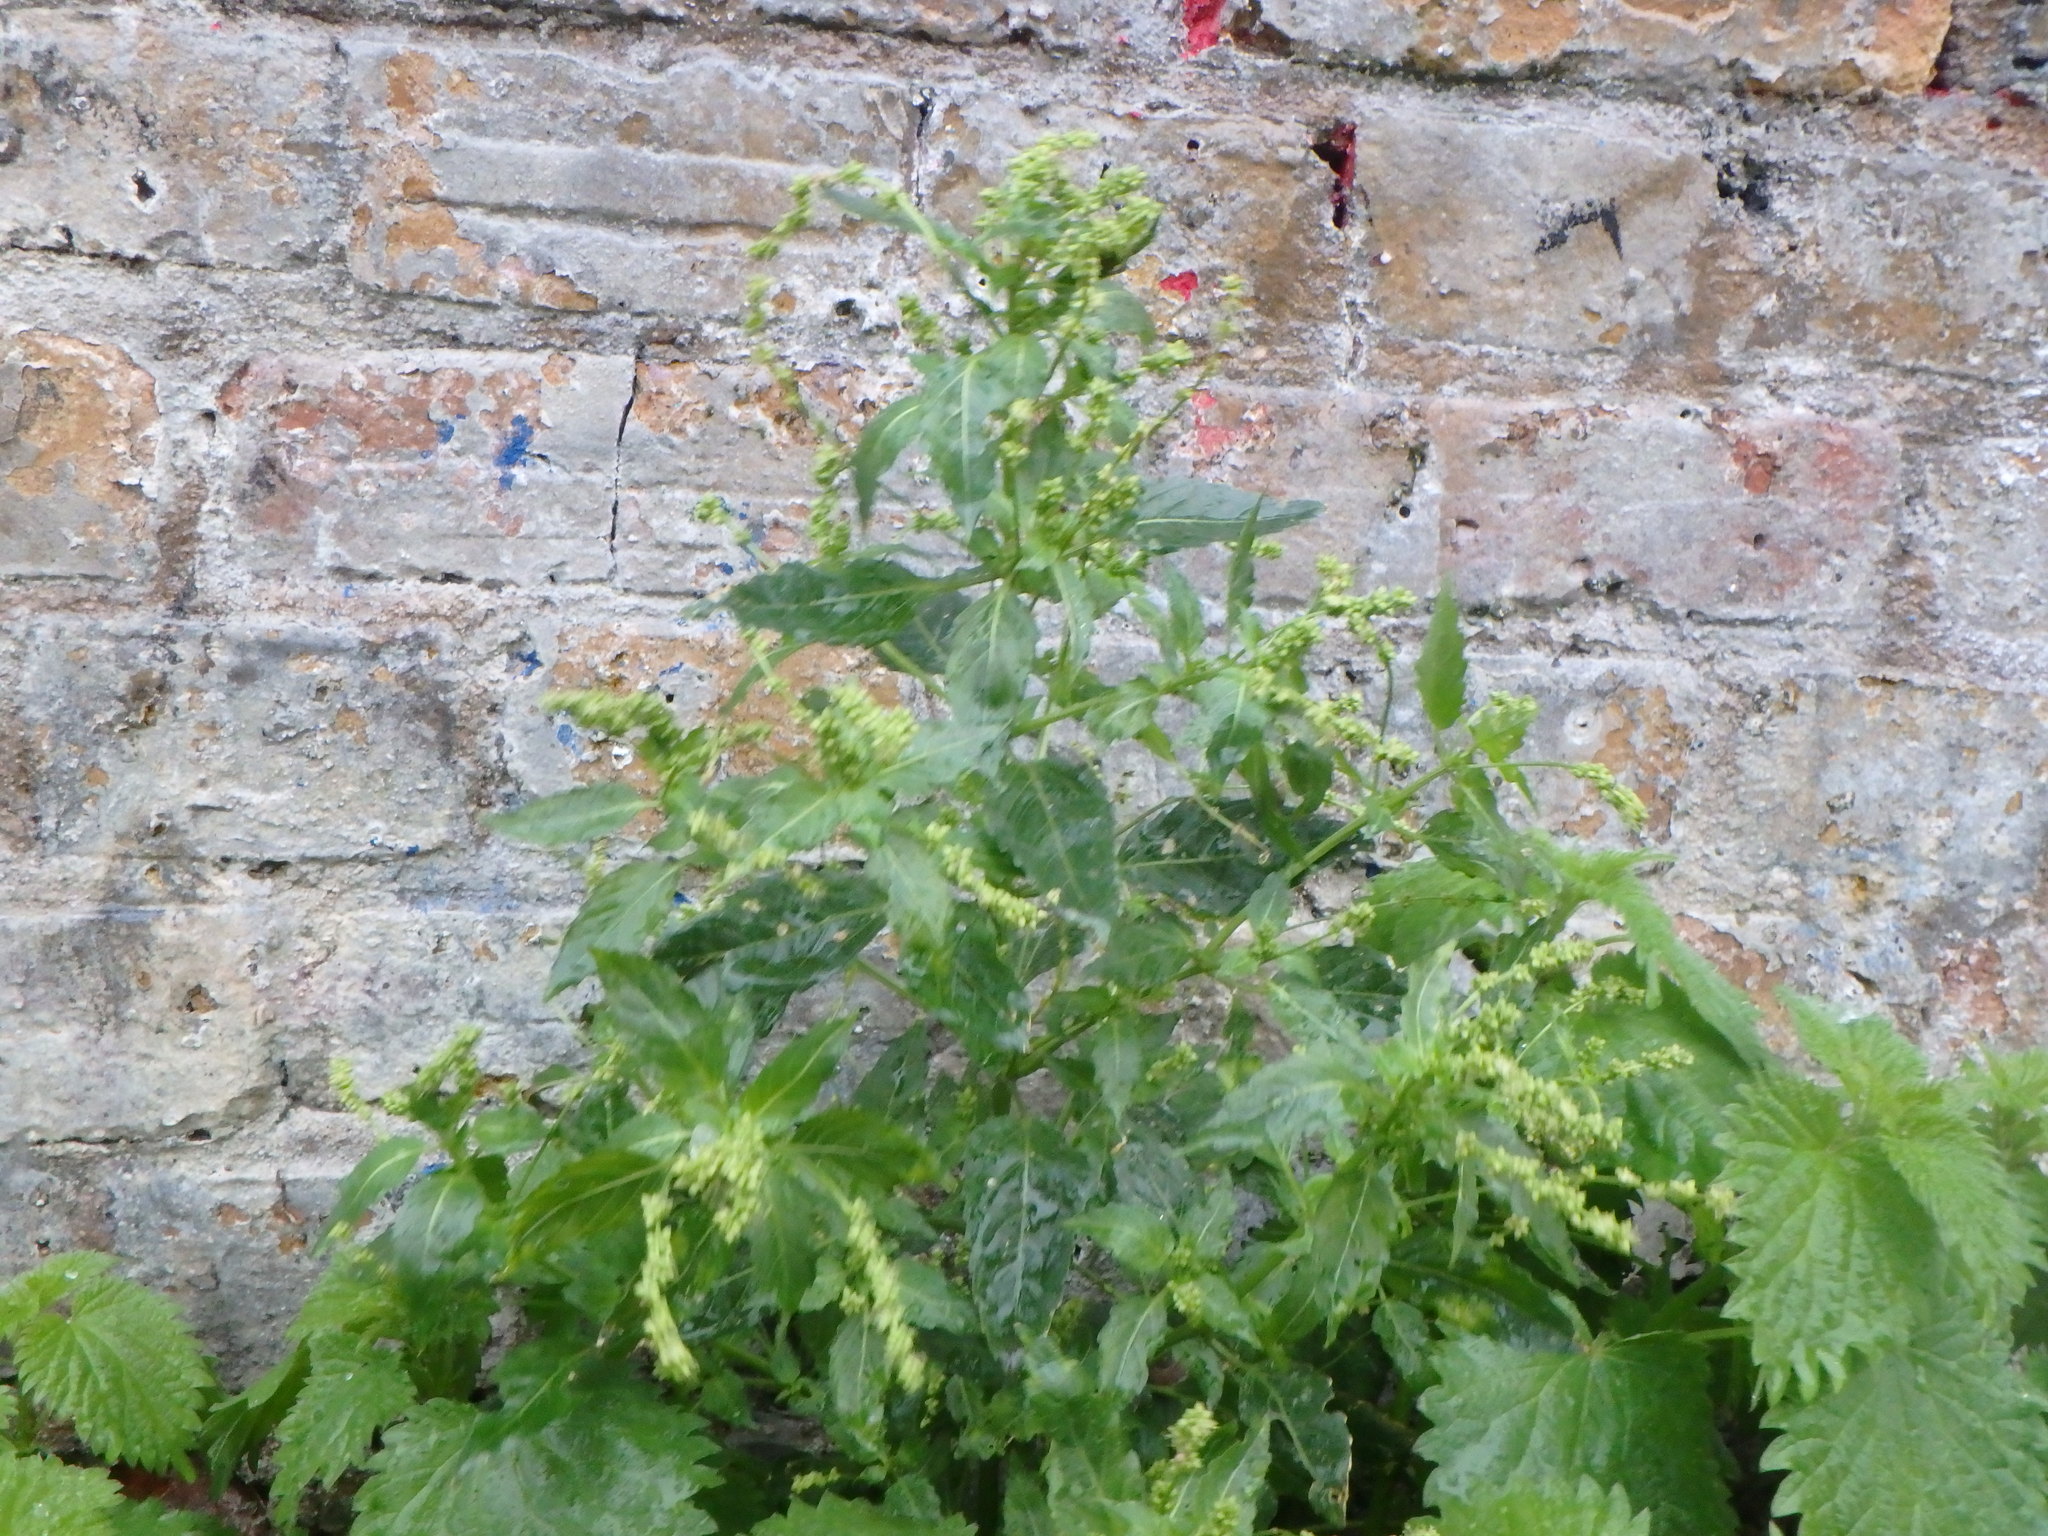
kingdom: Plantae
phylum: Tracheophyta
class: Magnoliopsida
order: Malpighiales
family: Euphorbiaceae
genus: Mercurialis
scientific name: Mercurialis annua
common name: Annual mercury
